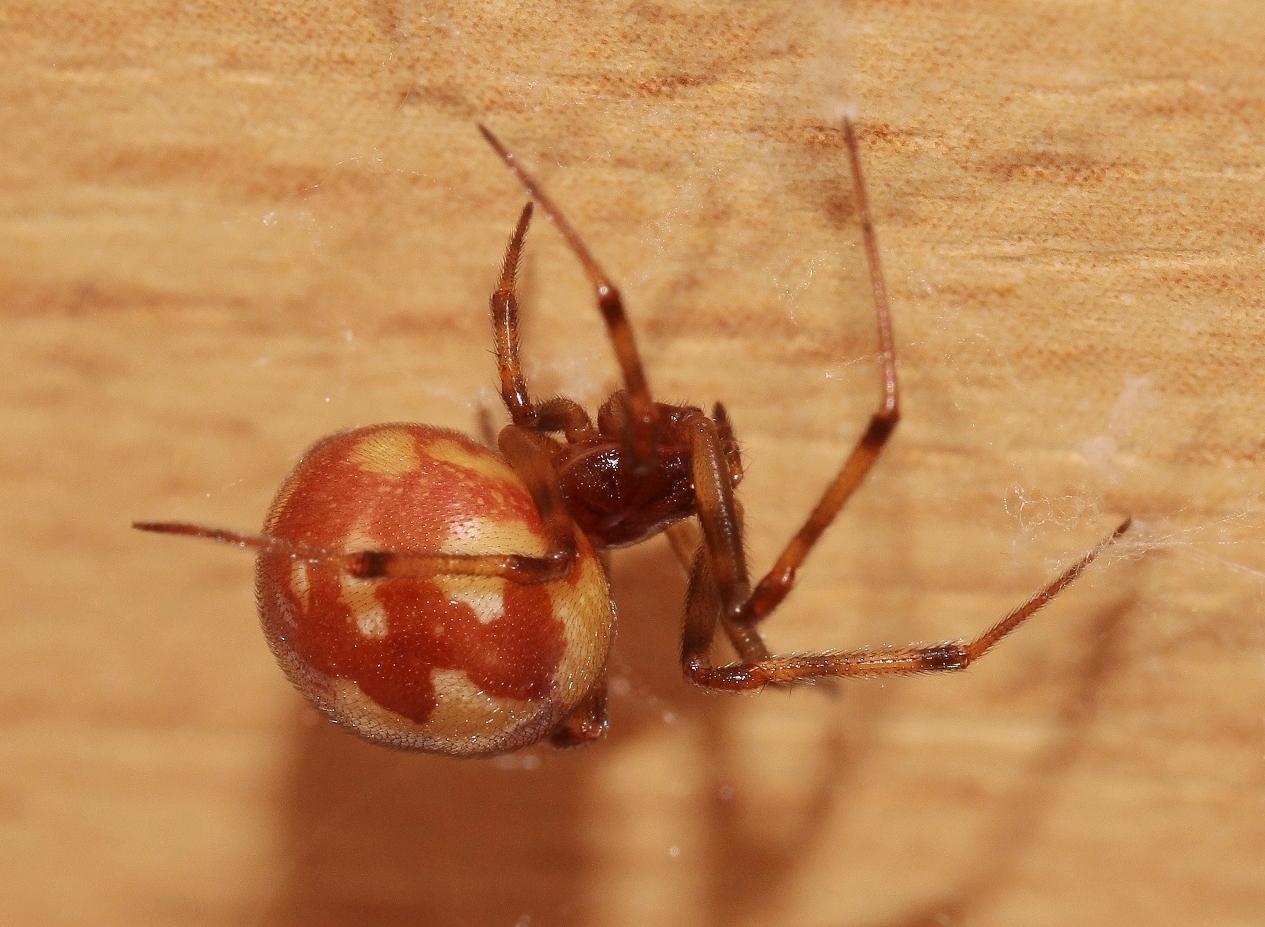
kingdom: Animalia
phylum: Arthropoda
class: Arachnida
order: Araneae
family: Theridiidae
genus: Steatoda
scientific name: Steatoda triangulosa
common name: Triangulate bud spider
